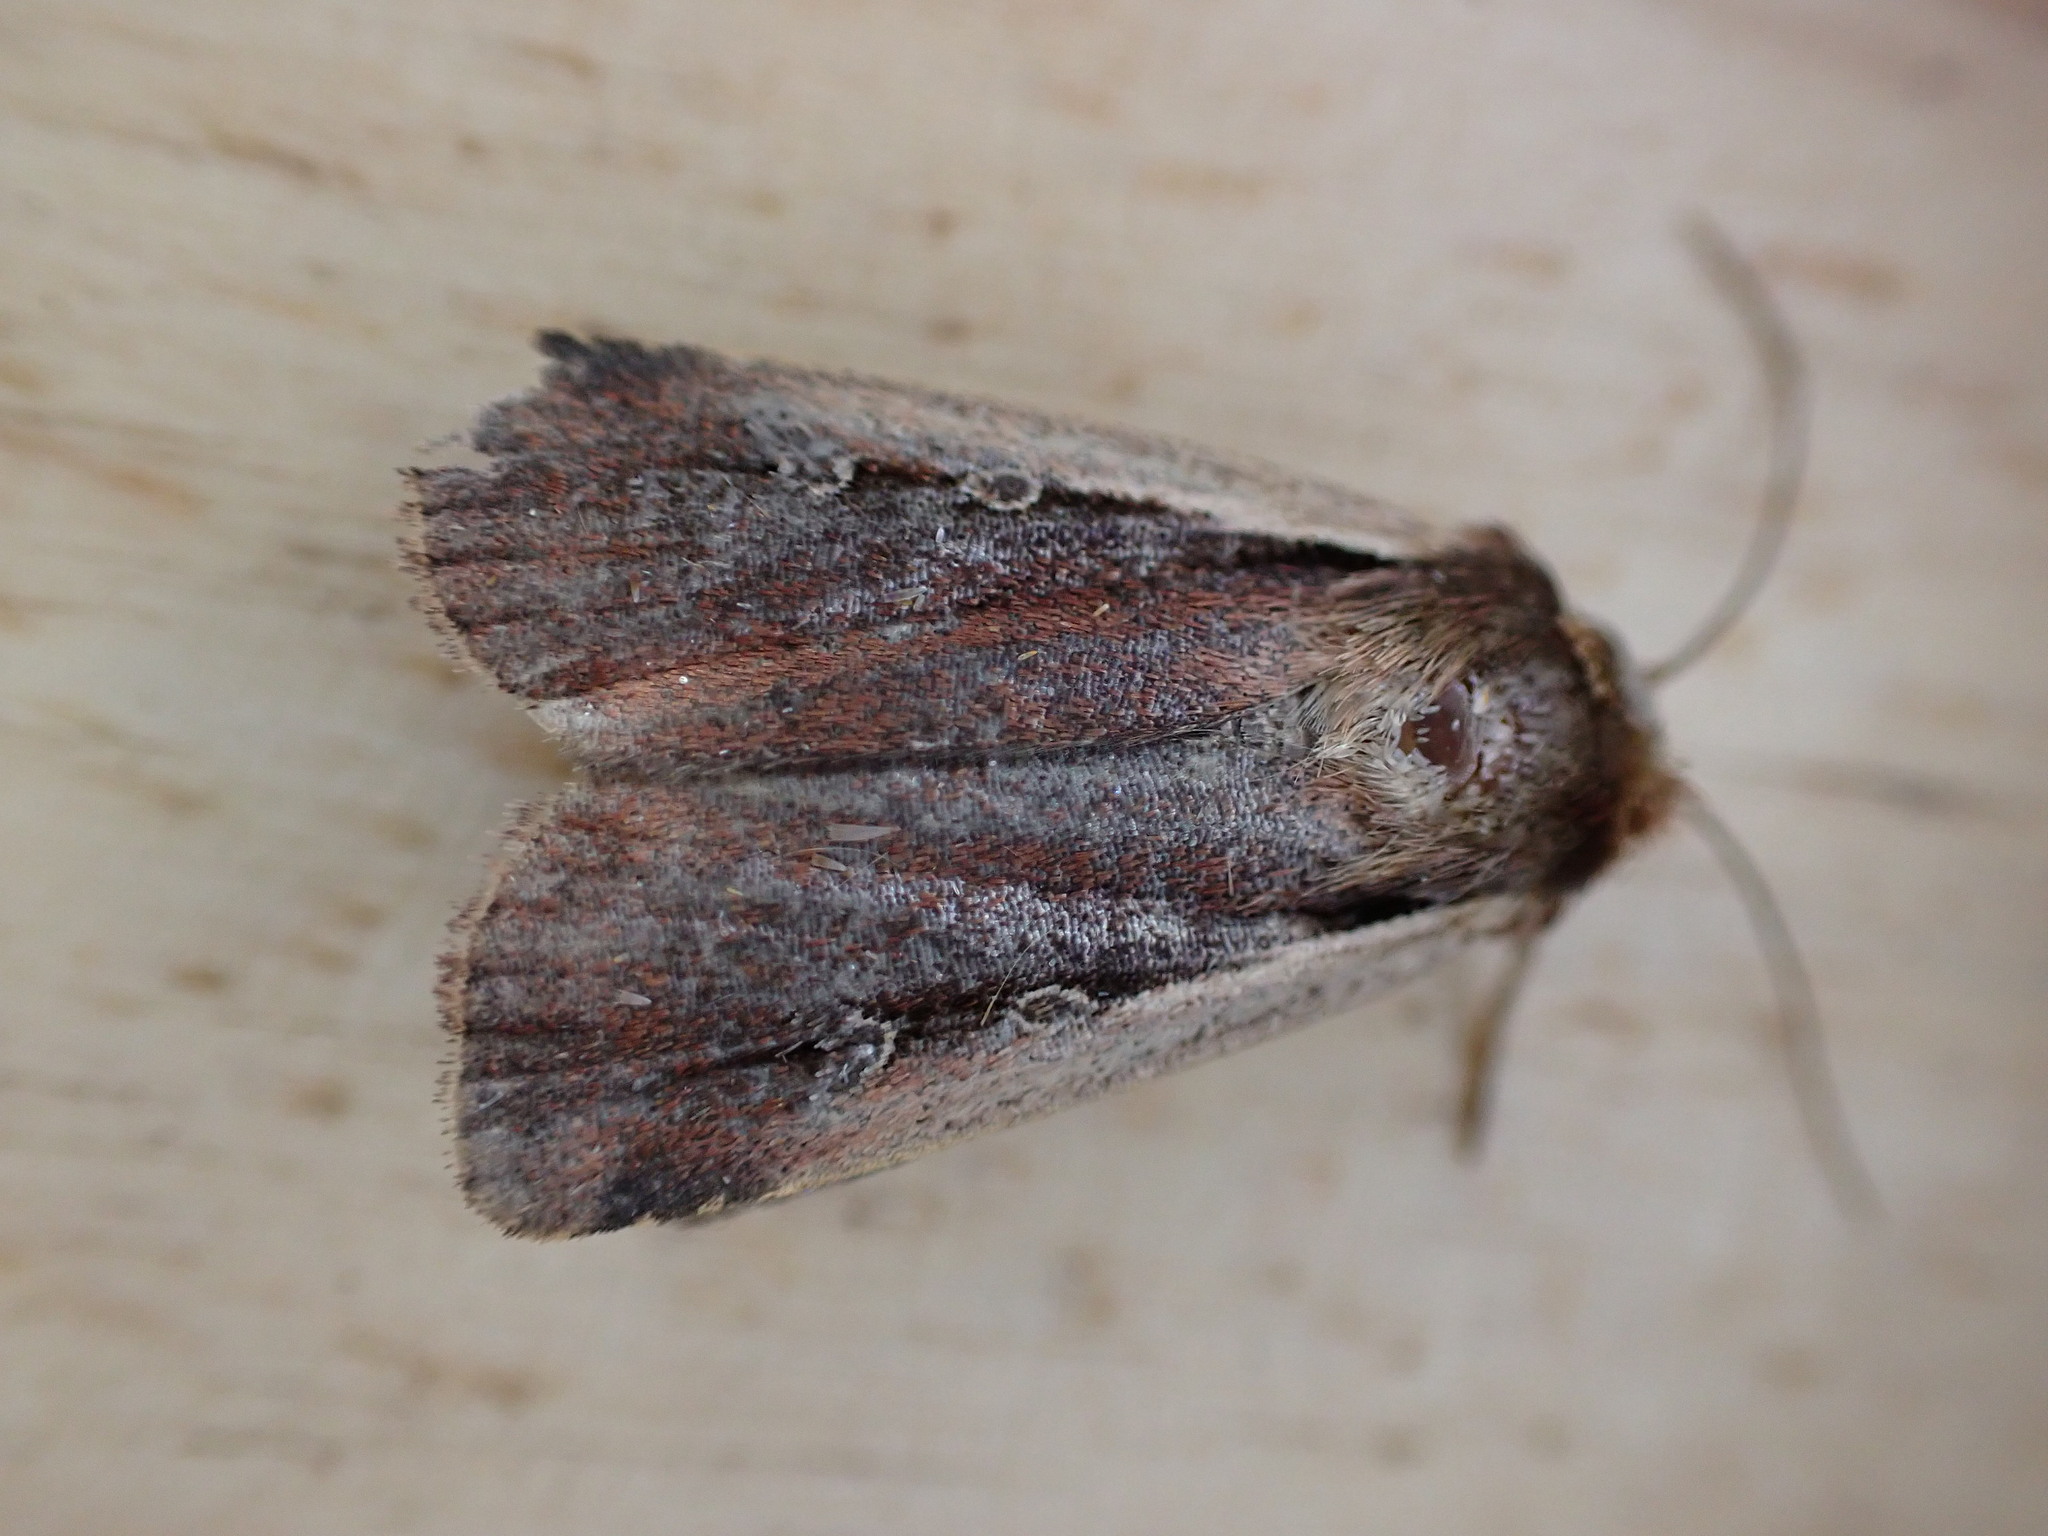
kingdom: Animalia
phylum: Arthropoda
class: Insecta
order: Lepidoptera
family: Noctuidae
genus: Ochropleura
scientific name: Ochropleura plecta
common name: Flame shoulder
